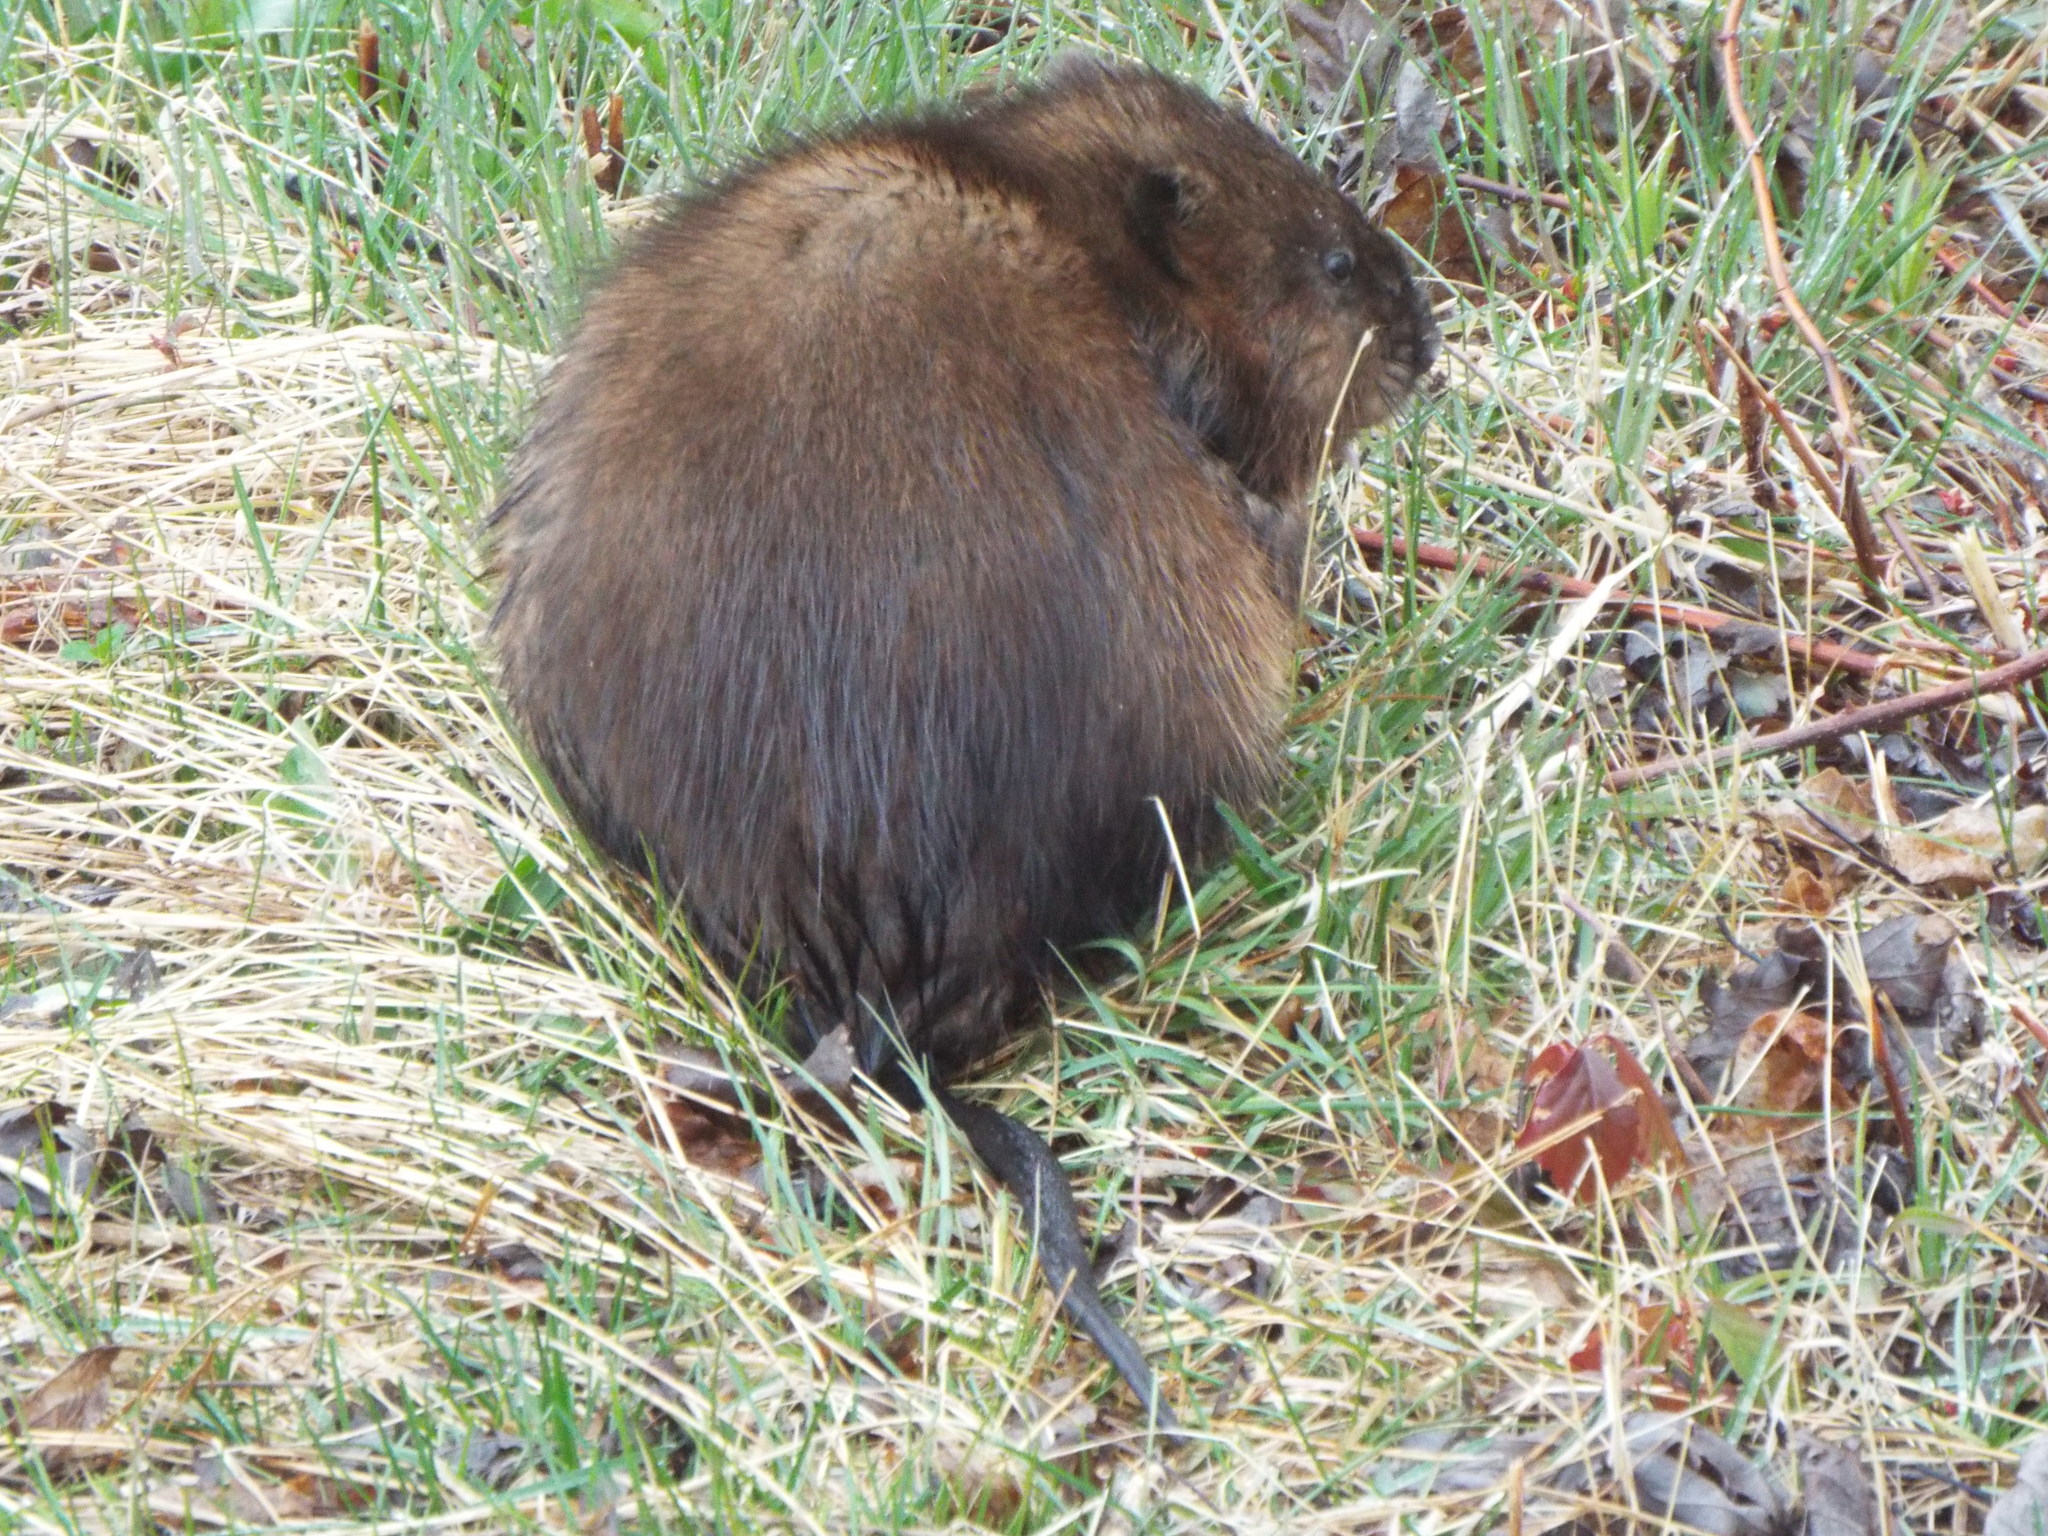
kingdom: Animalia
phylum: Chordata
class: Mammalia
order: Rodentia
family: Cricetidae
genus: Ondatra
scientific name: Ondatra zibethicus
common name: Muskrat
